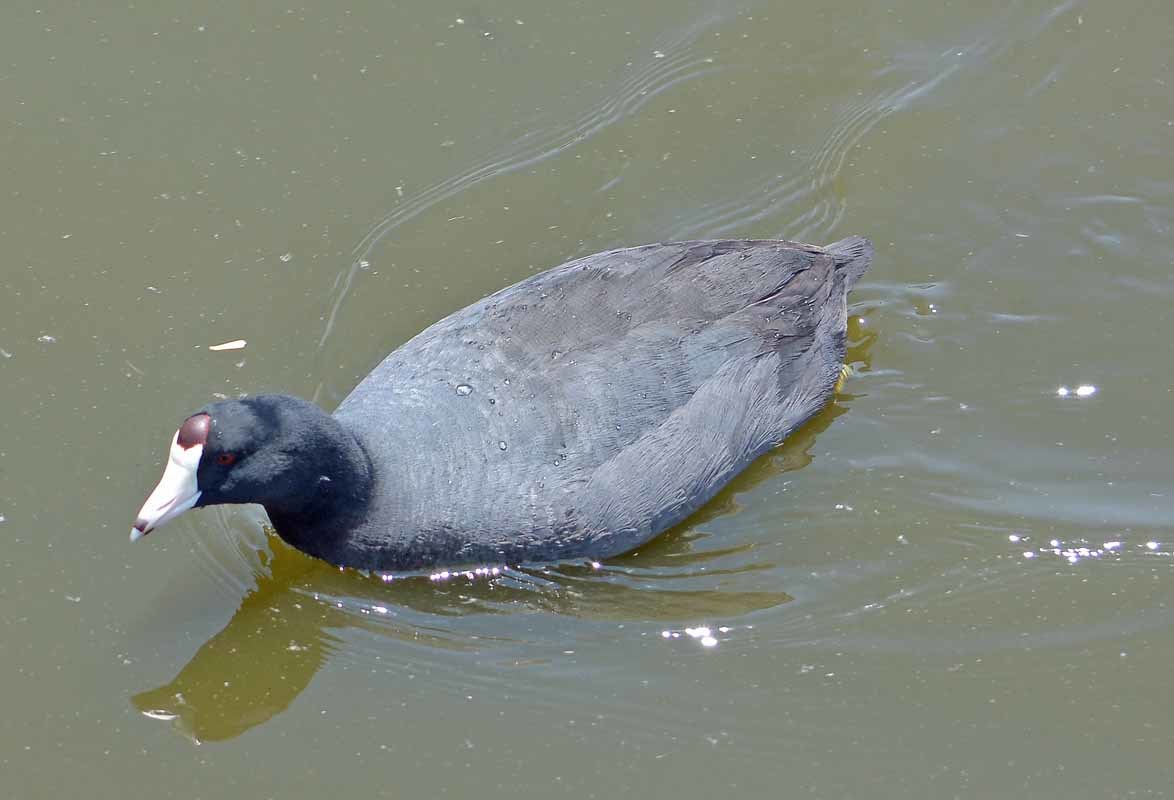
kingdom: Animalia
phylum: Chordata
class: Aves
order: Gruiformes
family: Rallidae
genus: Fulica
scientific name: Fulica americana
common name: American coot
